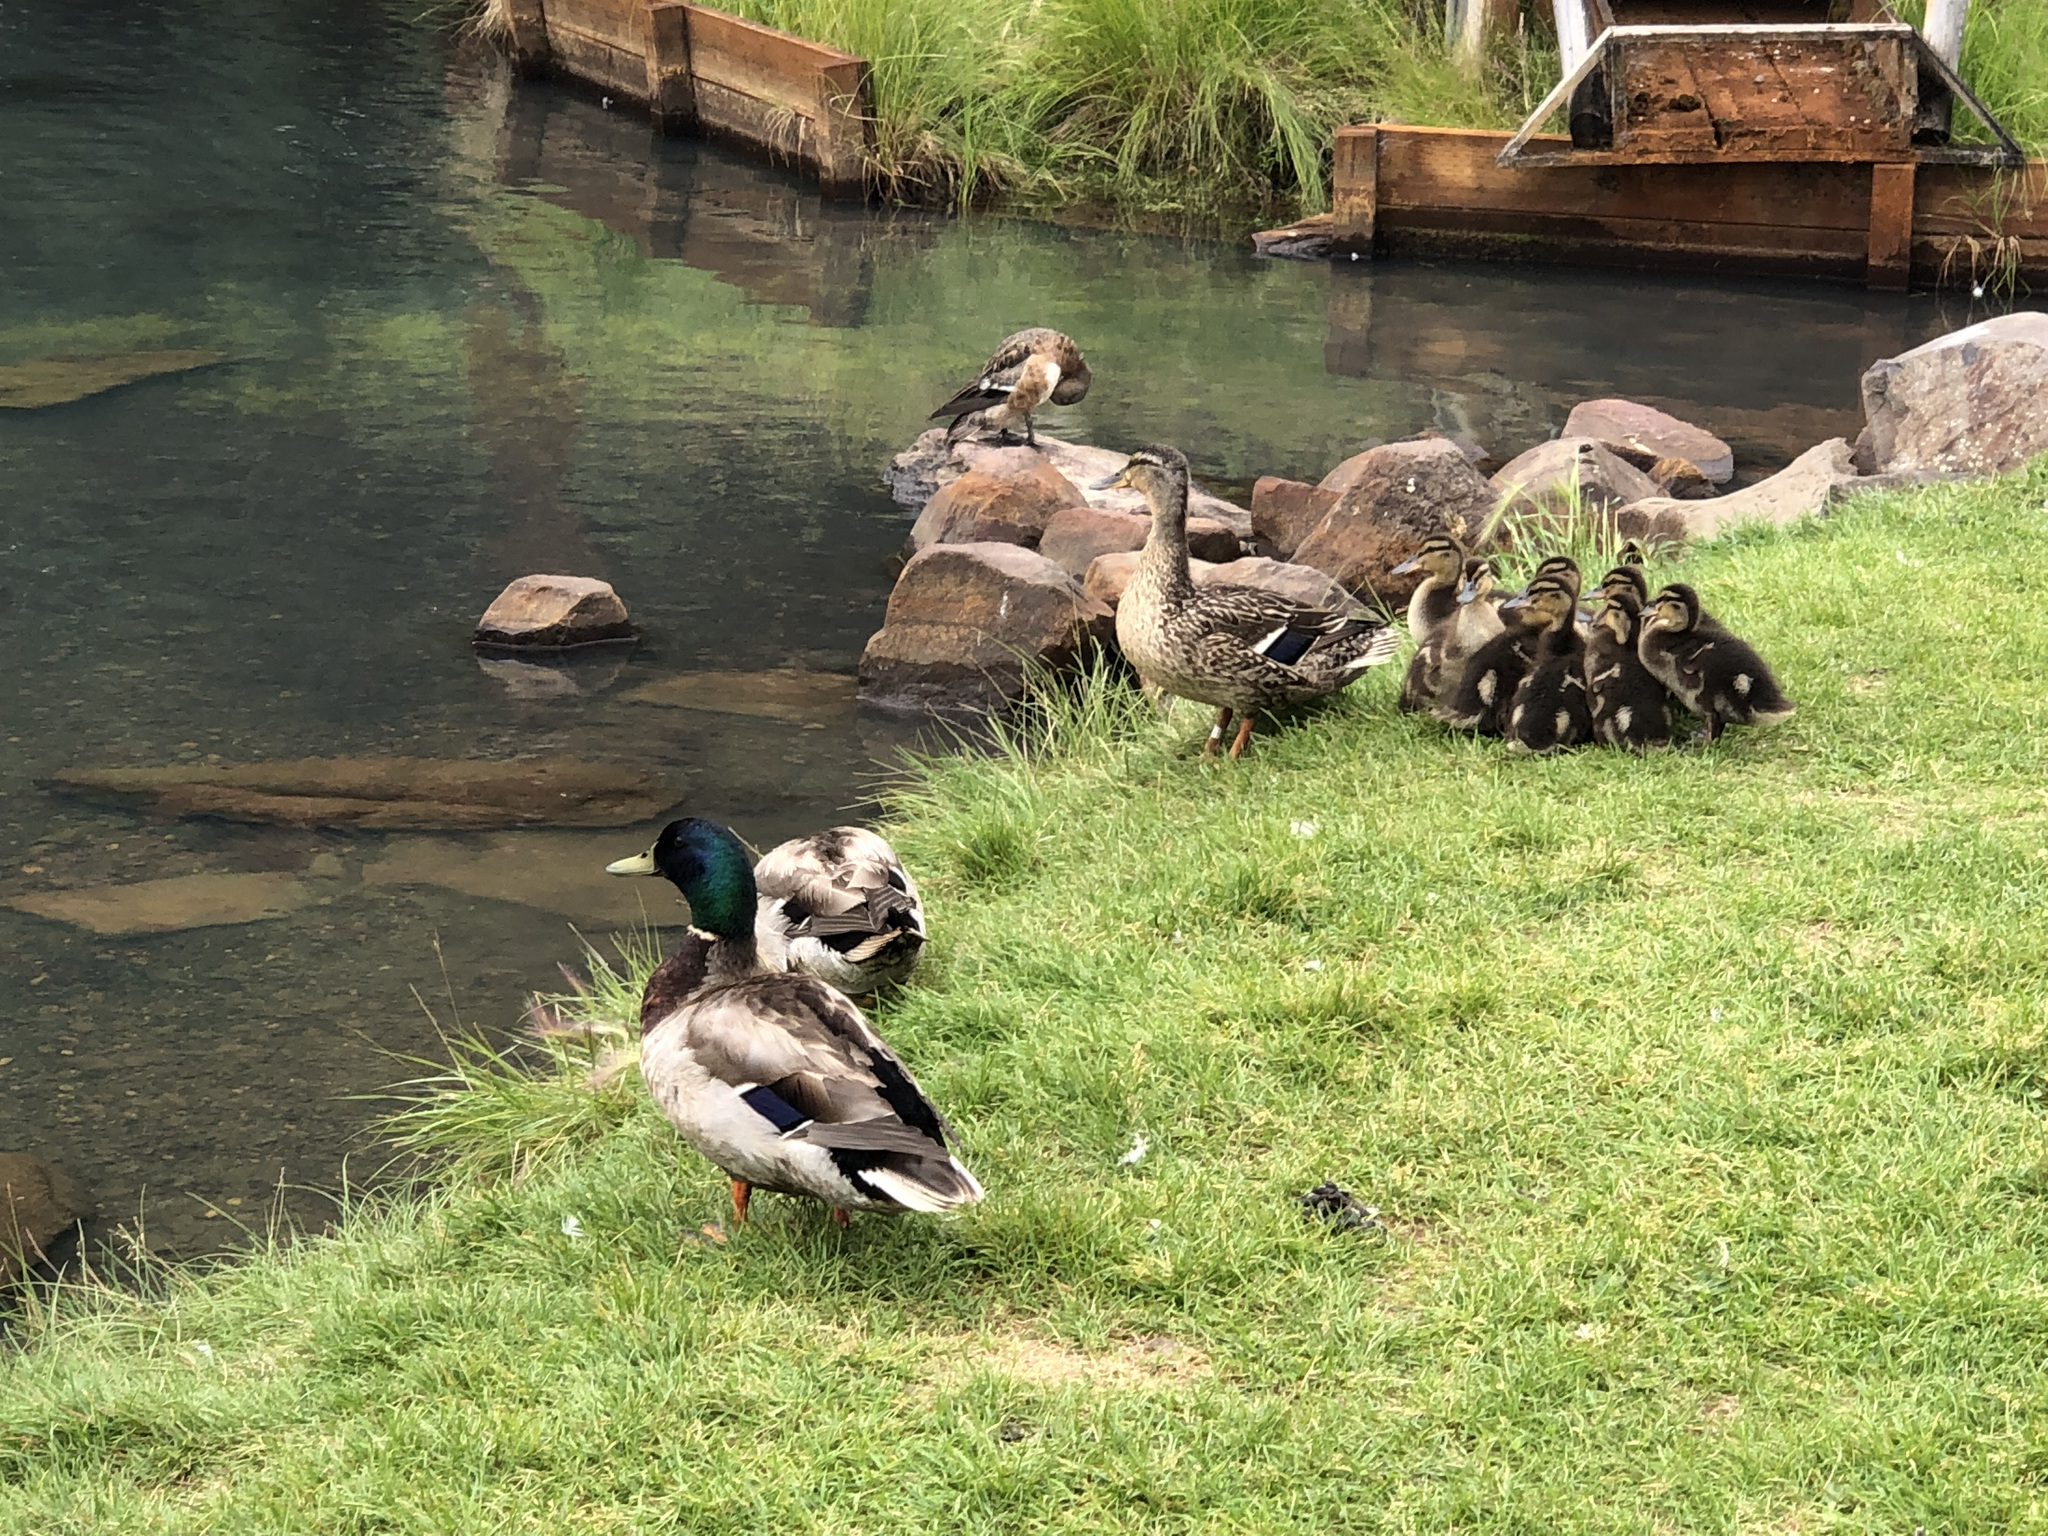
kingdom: Animalia
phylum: Chordata
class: Aves
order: Anseriformes
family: Anatidae
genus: Anas
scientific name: Anas platyrhynchos
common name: Mallard
